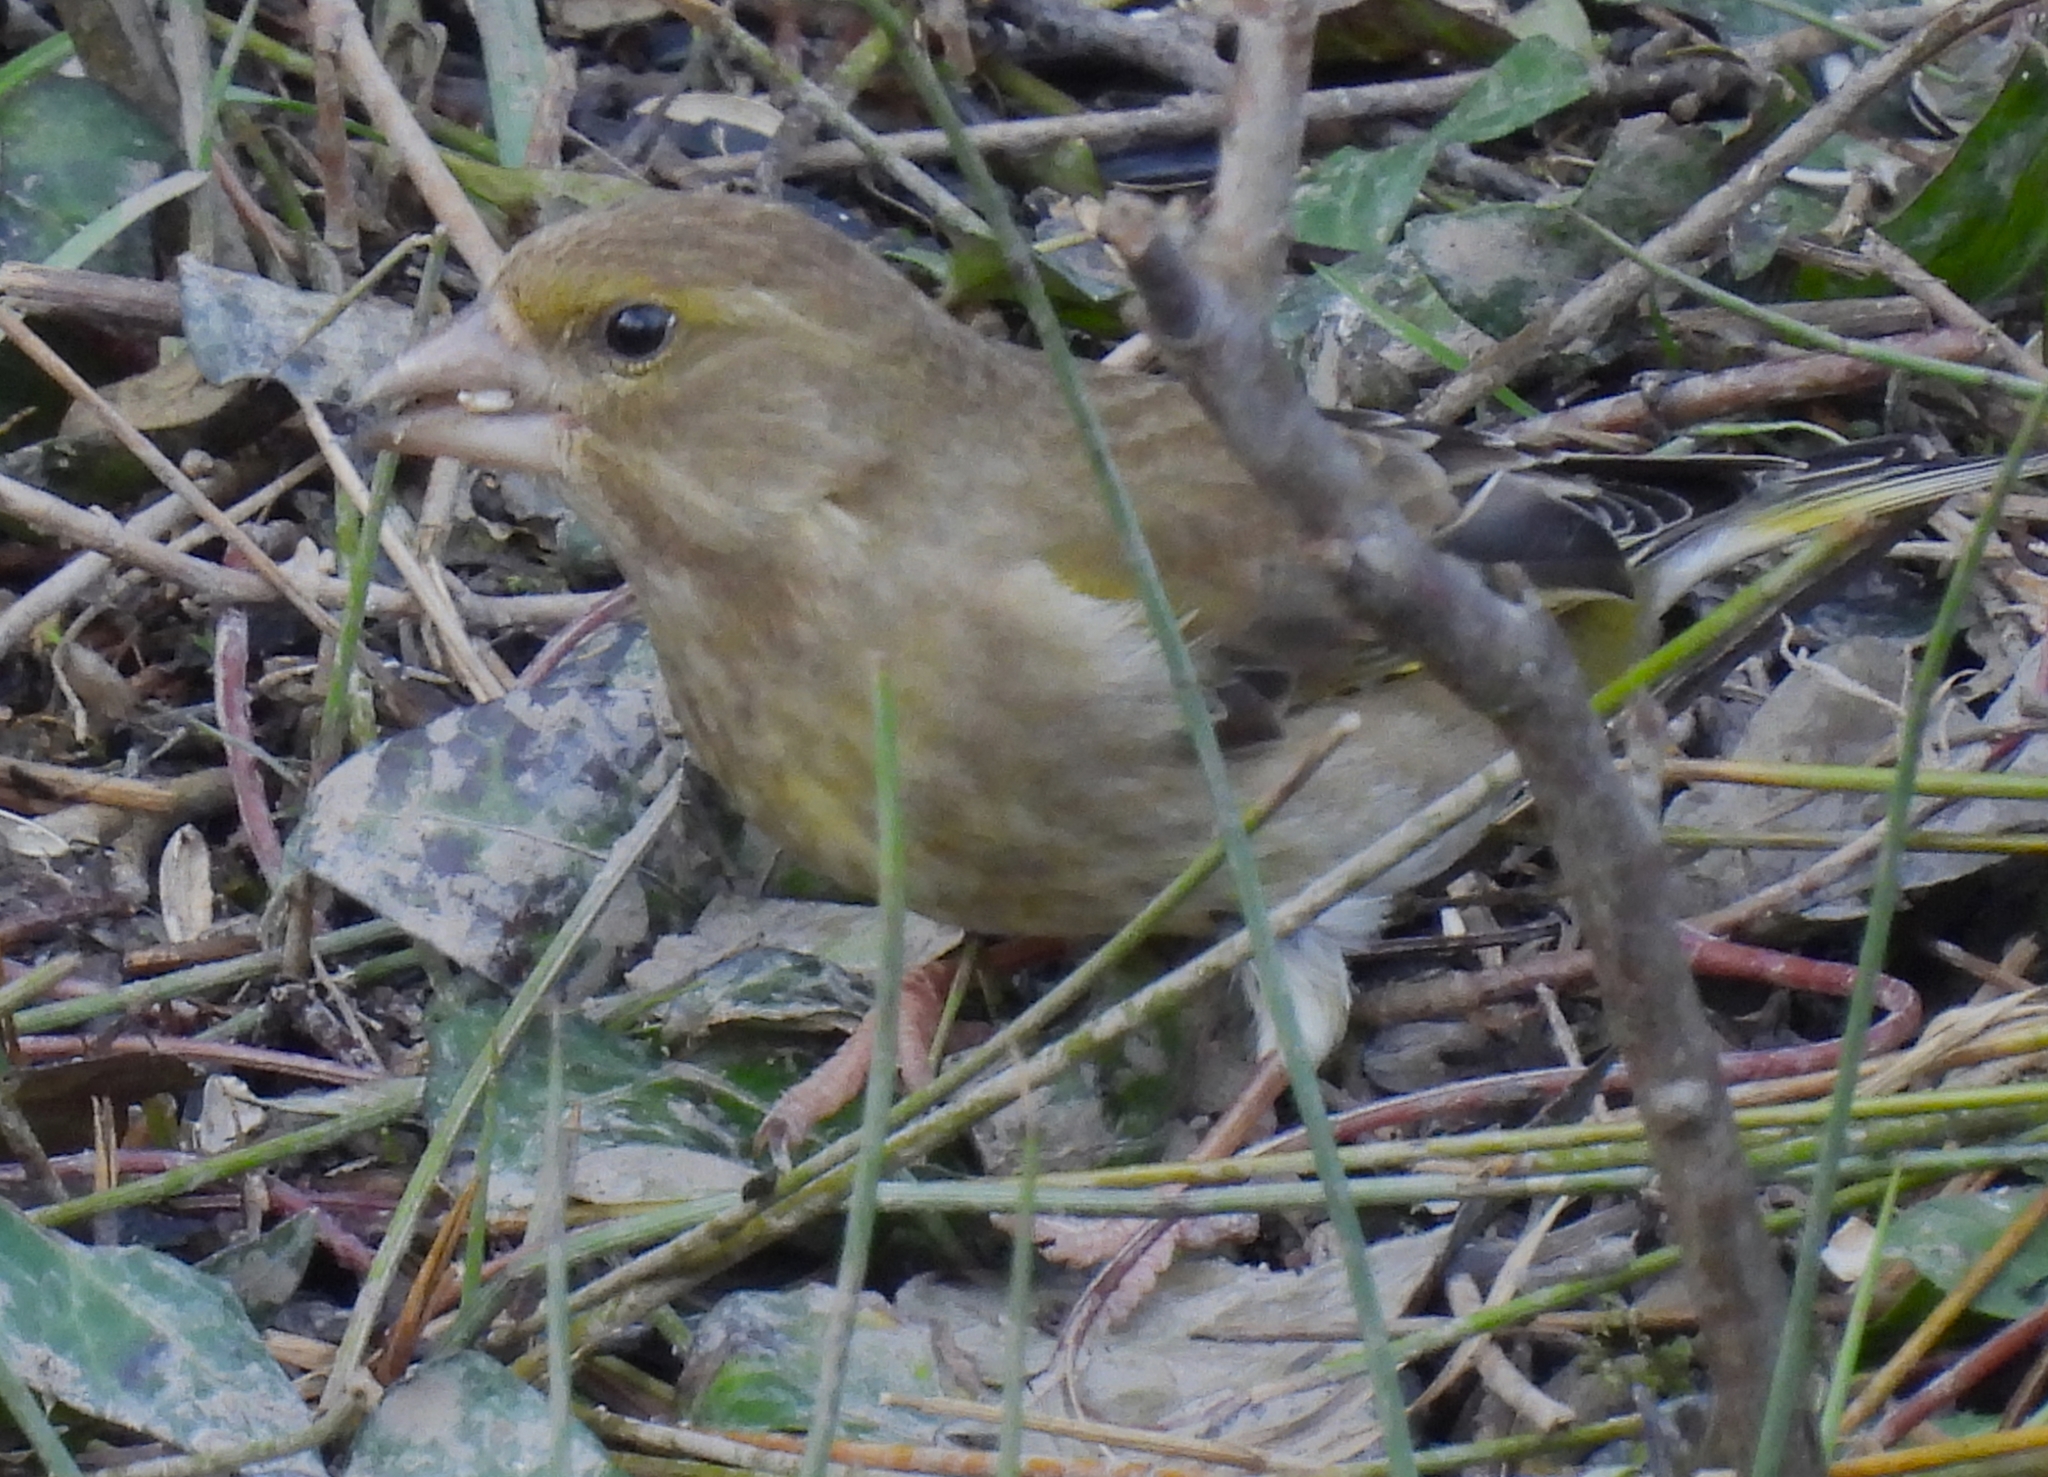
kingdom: Plantae
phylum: Tracheophyta
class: Liliopsida
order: Poales
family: Poaceae
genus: Chloris
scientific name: Chloris chloris
